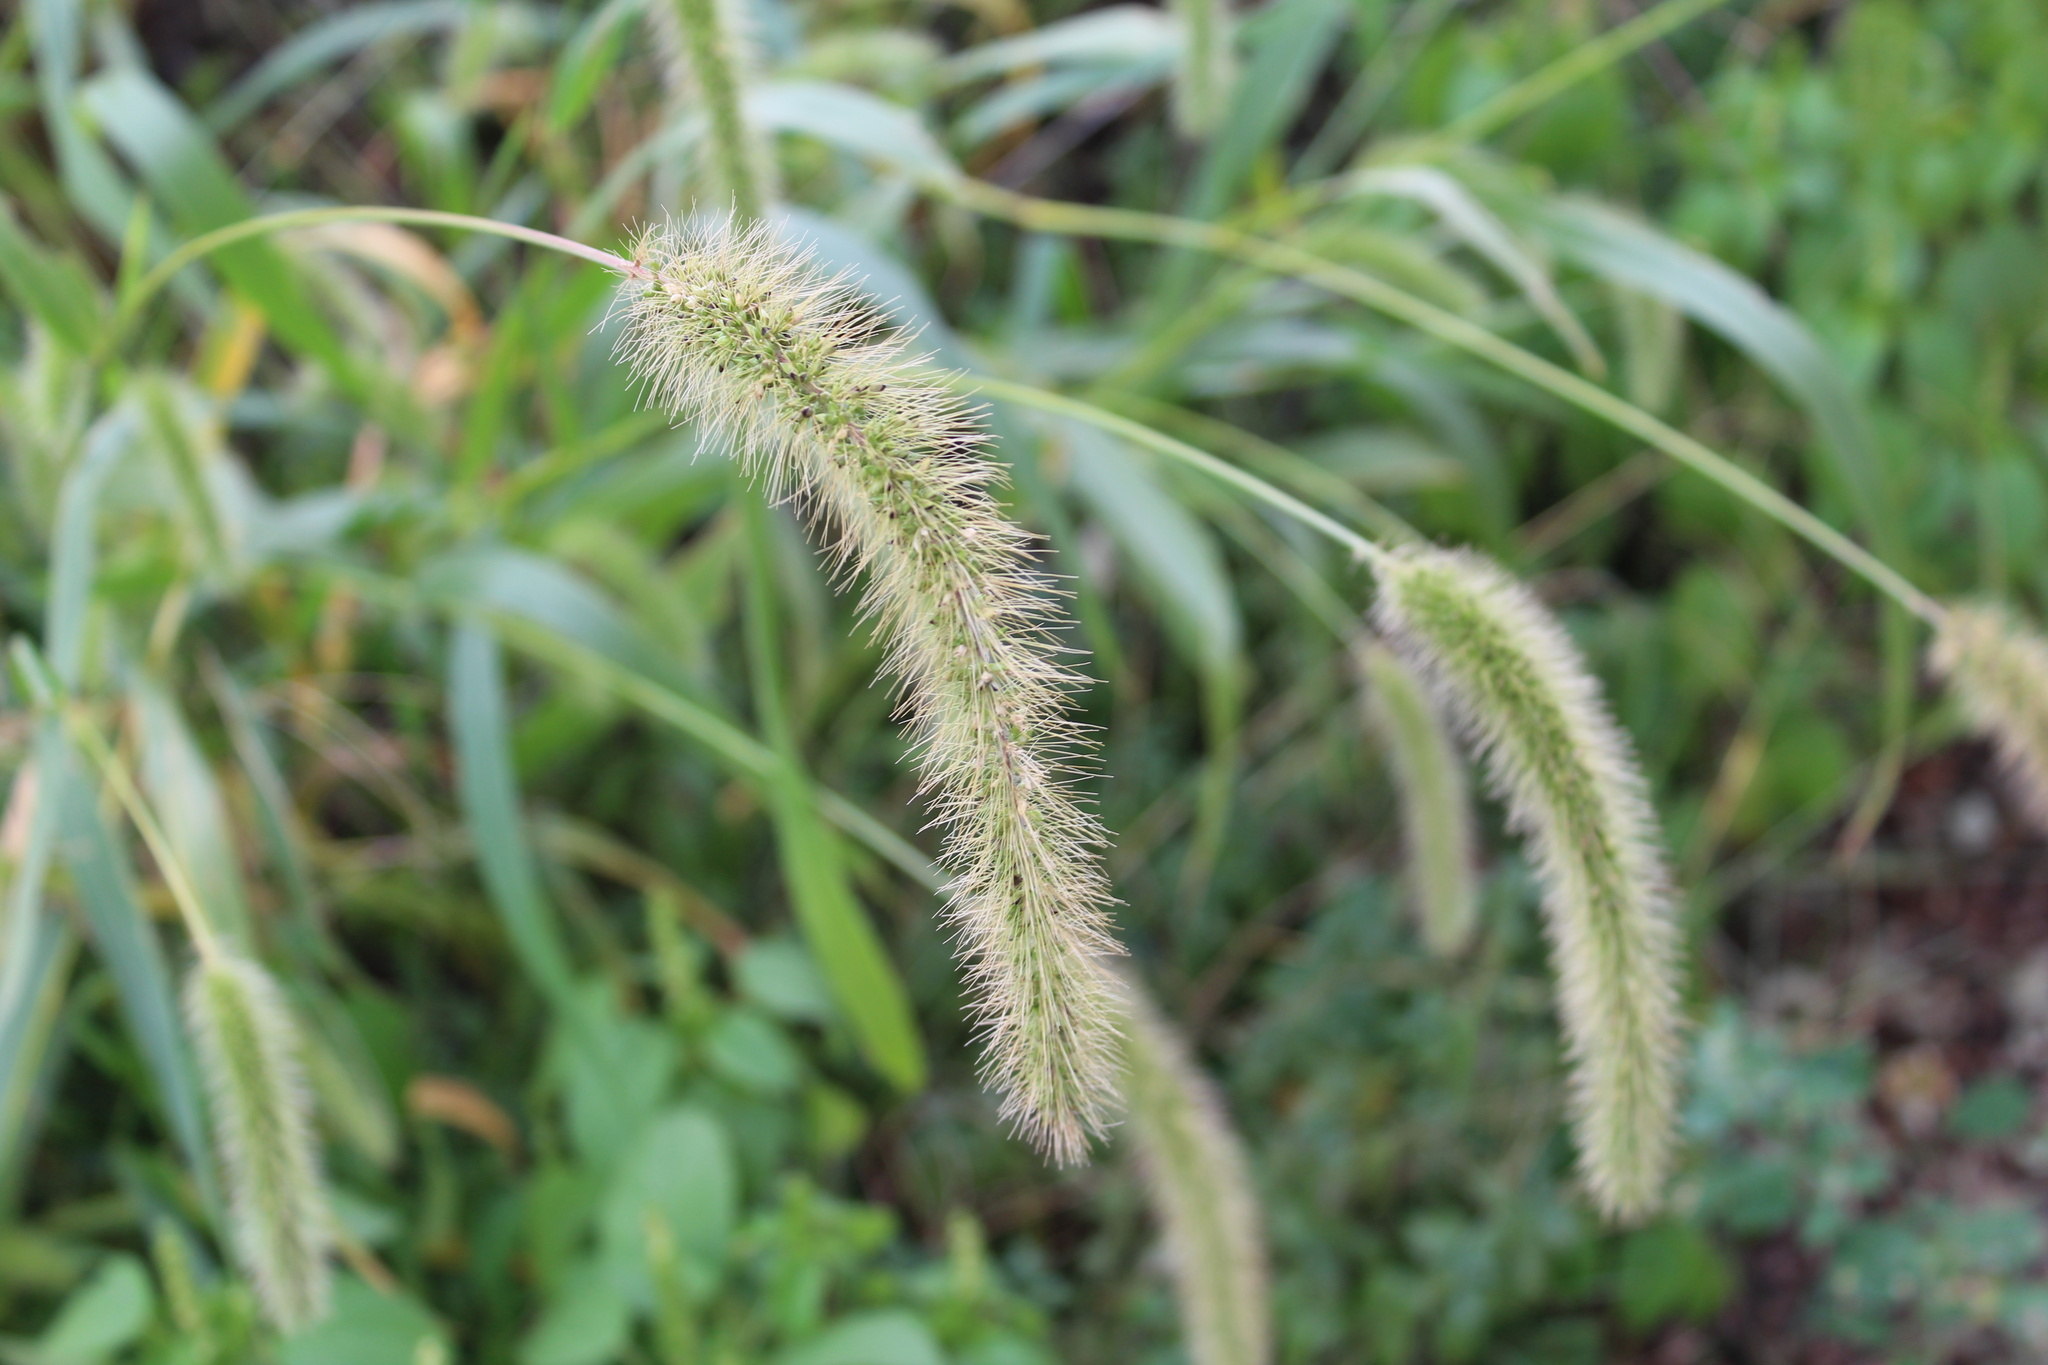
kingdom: Plantae
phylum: Tracheophyta
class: Liliopsida
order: Poales
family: Poaceae
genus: Setaria
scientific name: Setaria faberi
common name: Nodding bristle-grass
